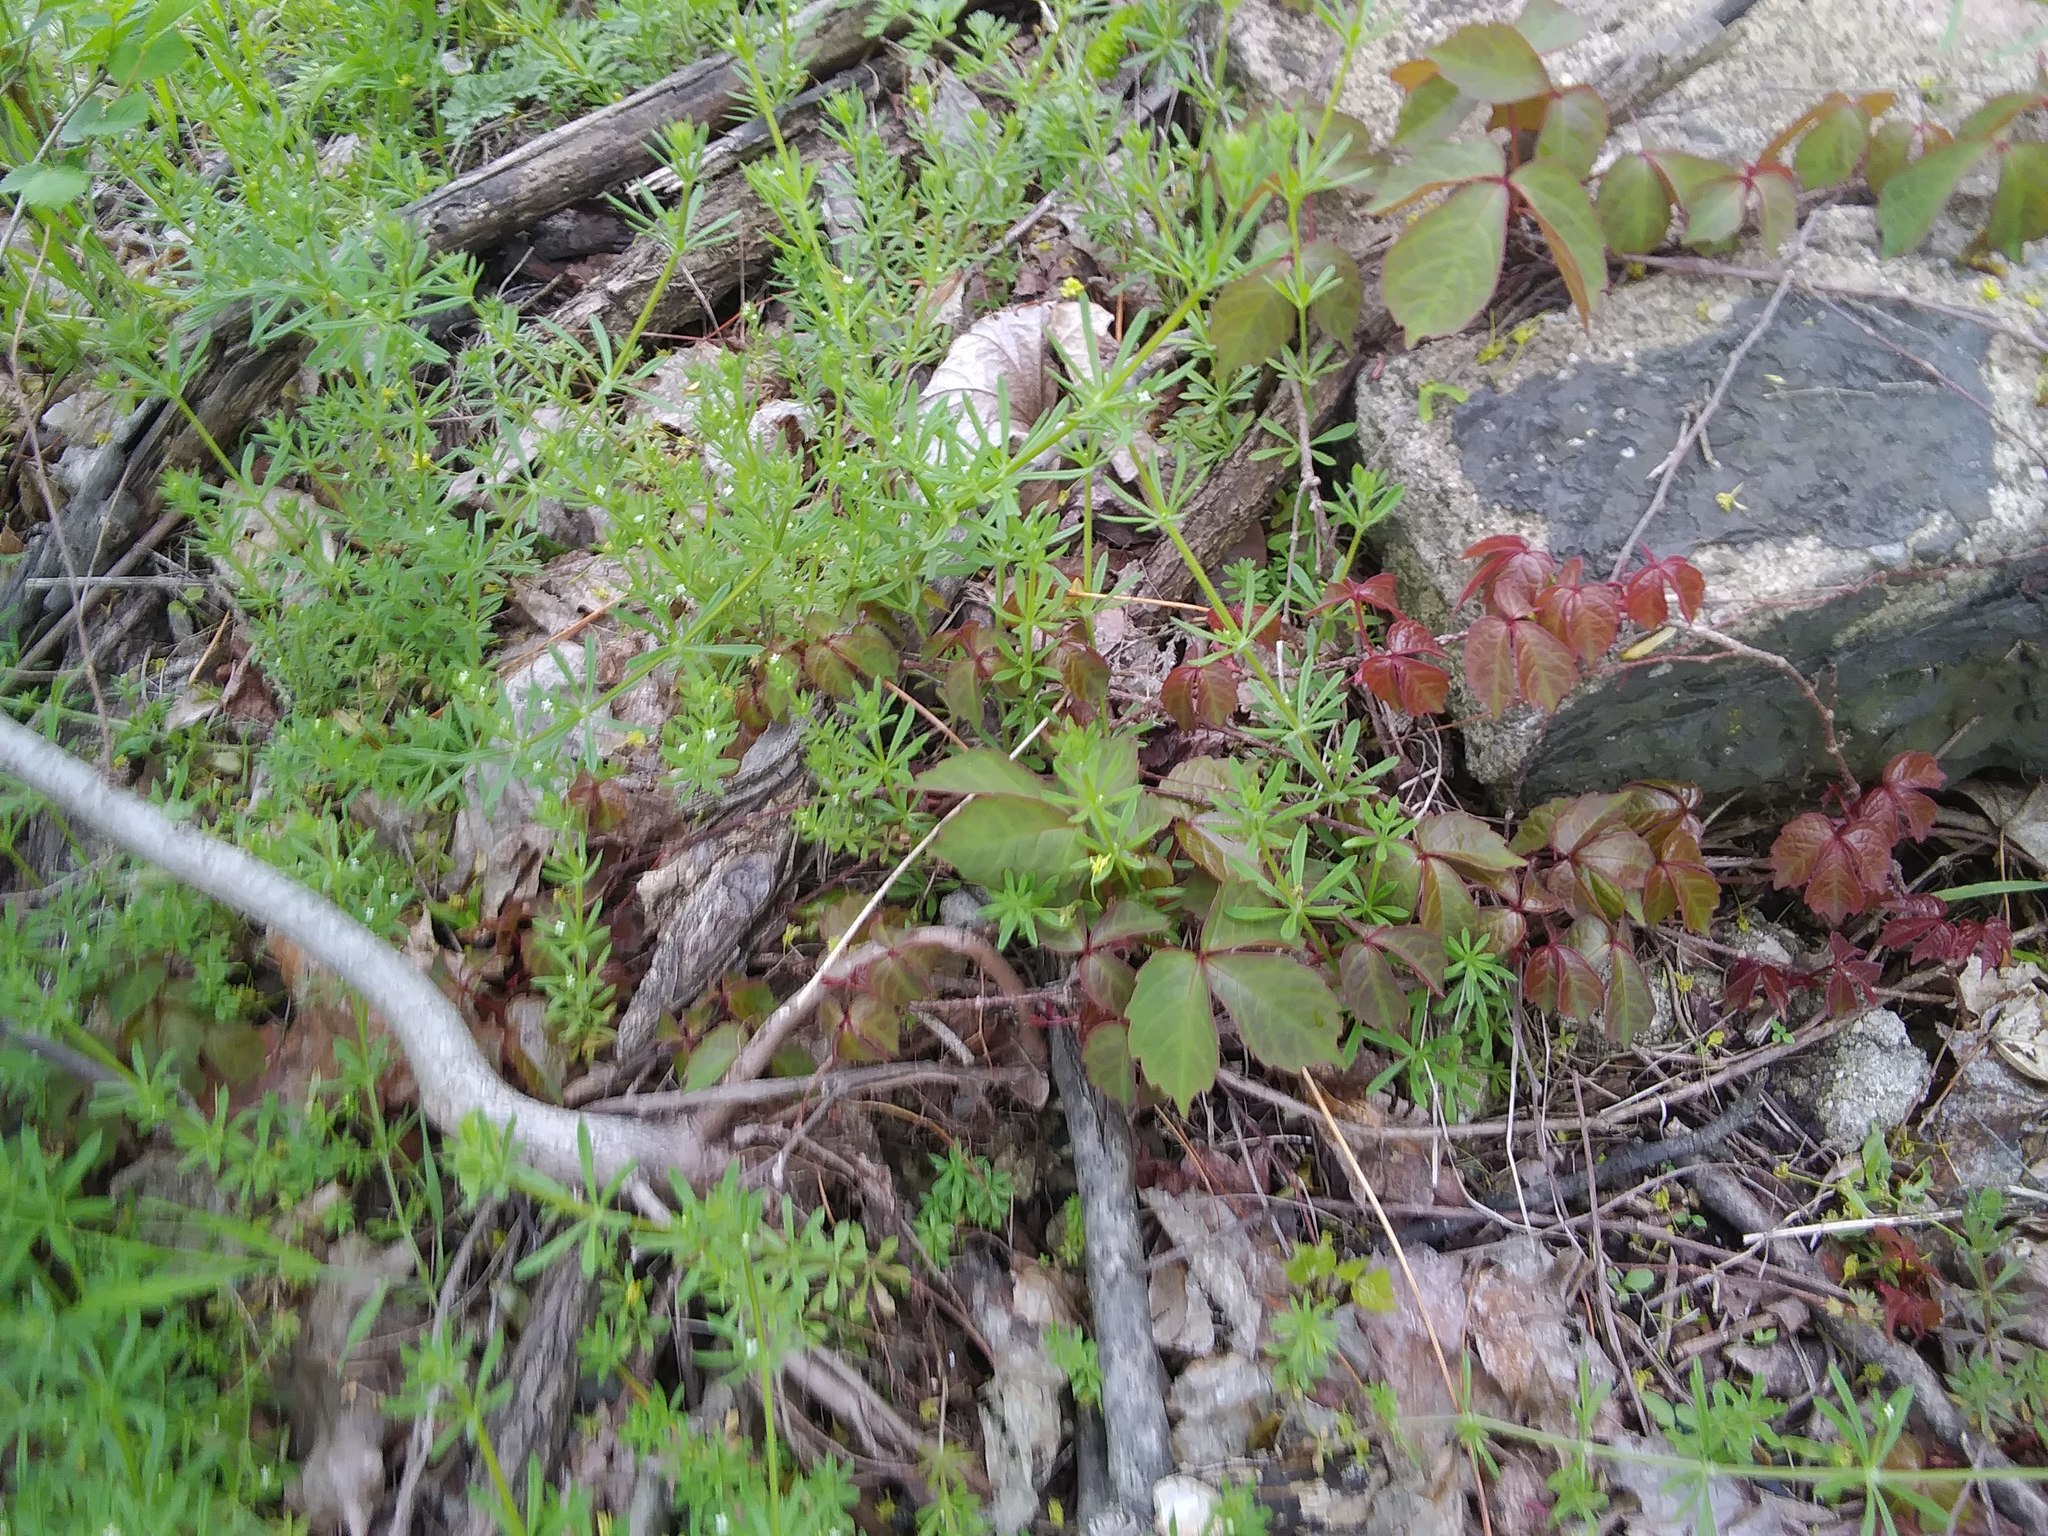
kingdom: Plantae
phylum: Tracheophyta
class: Magnoliopsida
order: Vitales
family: Vitaceae
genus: Parthenocissus
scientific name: Parthenocissus tricuspidata
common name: Boston ivy
